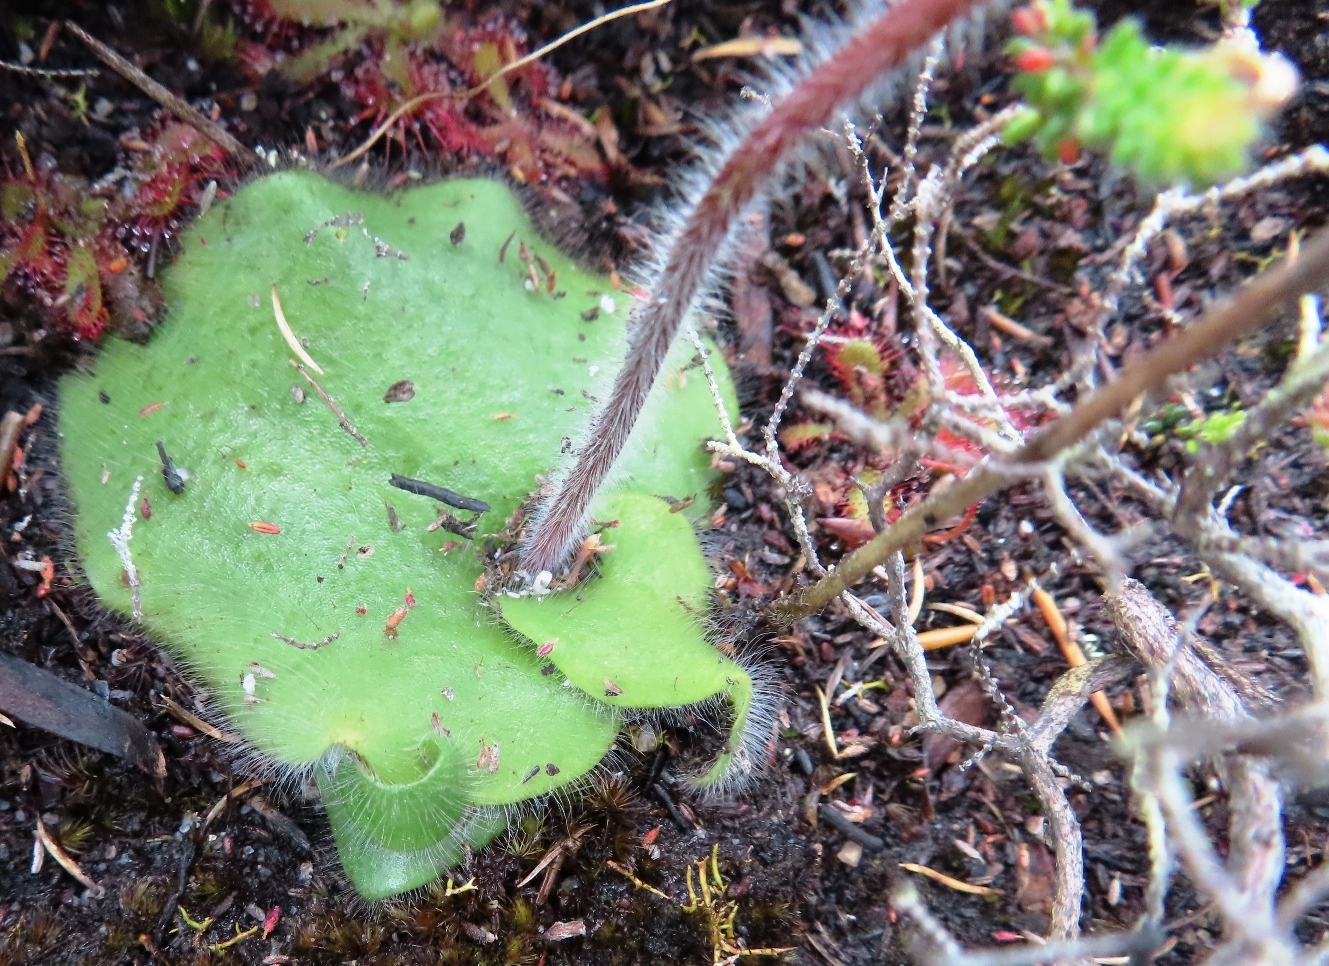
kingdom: Plantae
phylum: Tracheophyta
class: Liliopsida
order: Asparagales
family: Orchidaceae
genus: Holothrix
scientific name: Holothrix villosa
